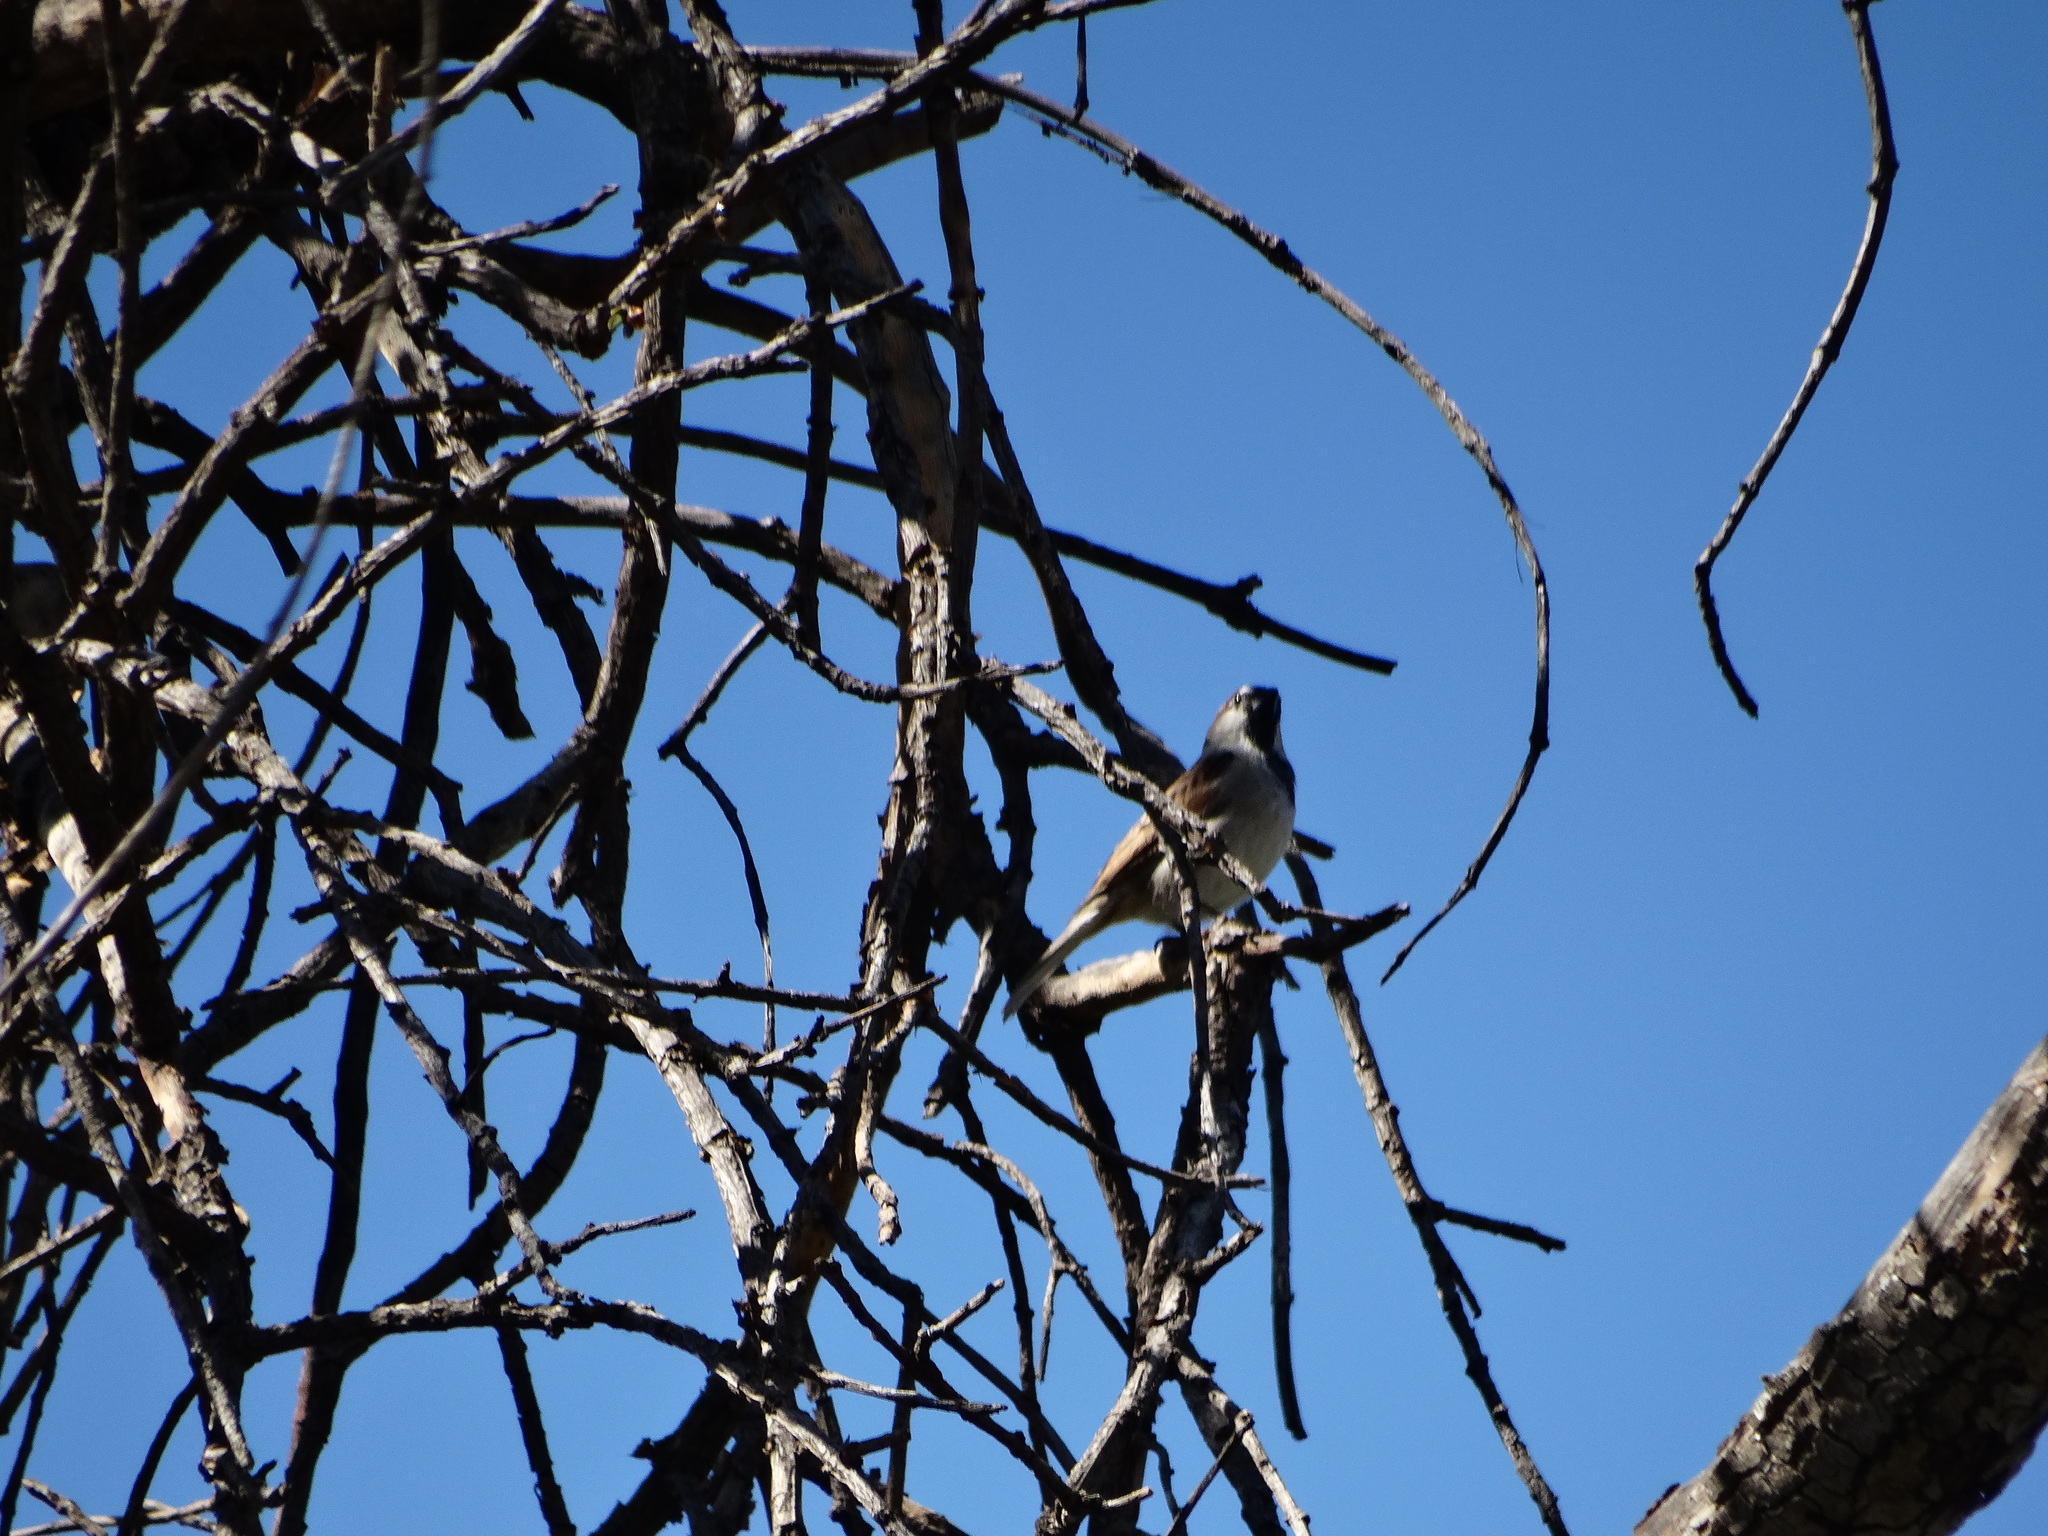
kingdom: Animalia
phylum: Chordata
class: Aves
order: Passeriformes
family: Passeridae
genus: Passer
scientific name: Passer domesticus
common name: House sparrow
